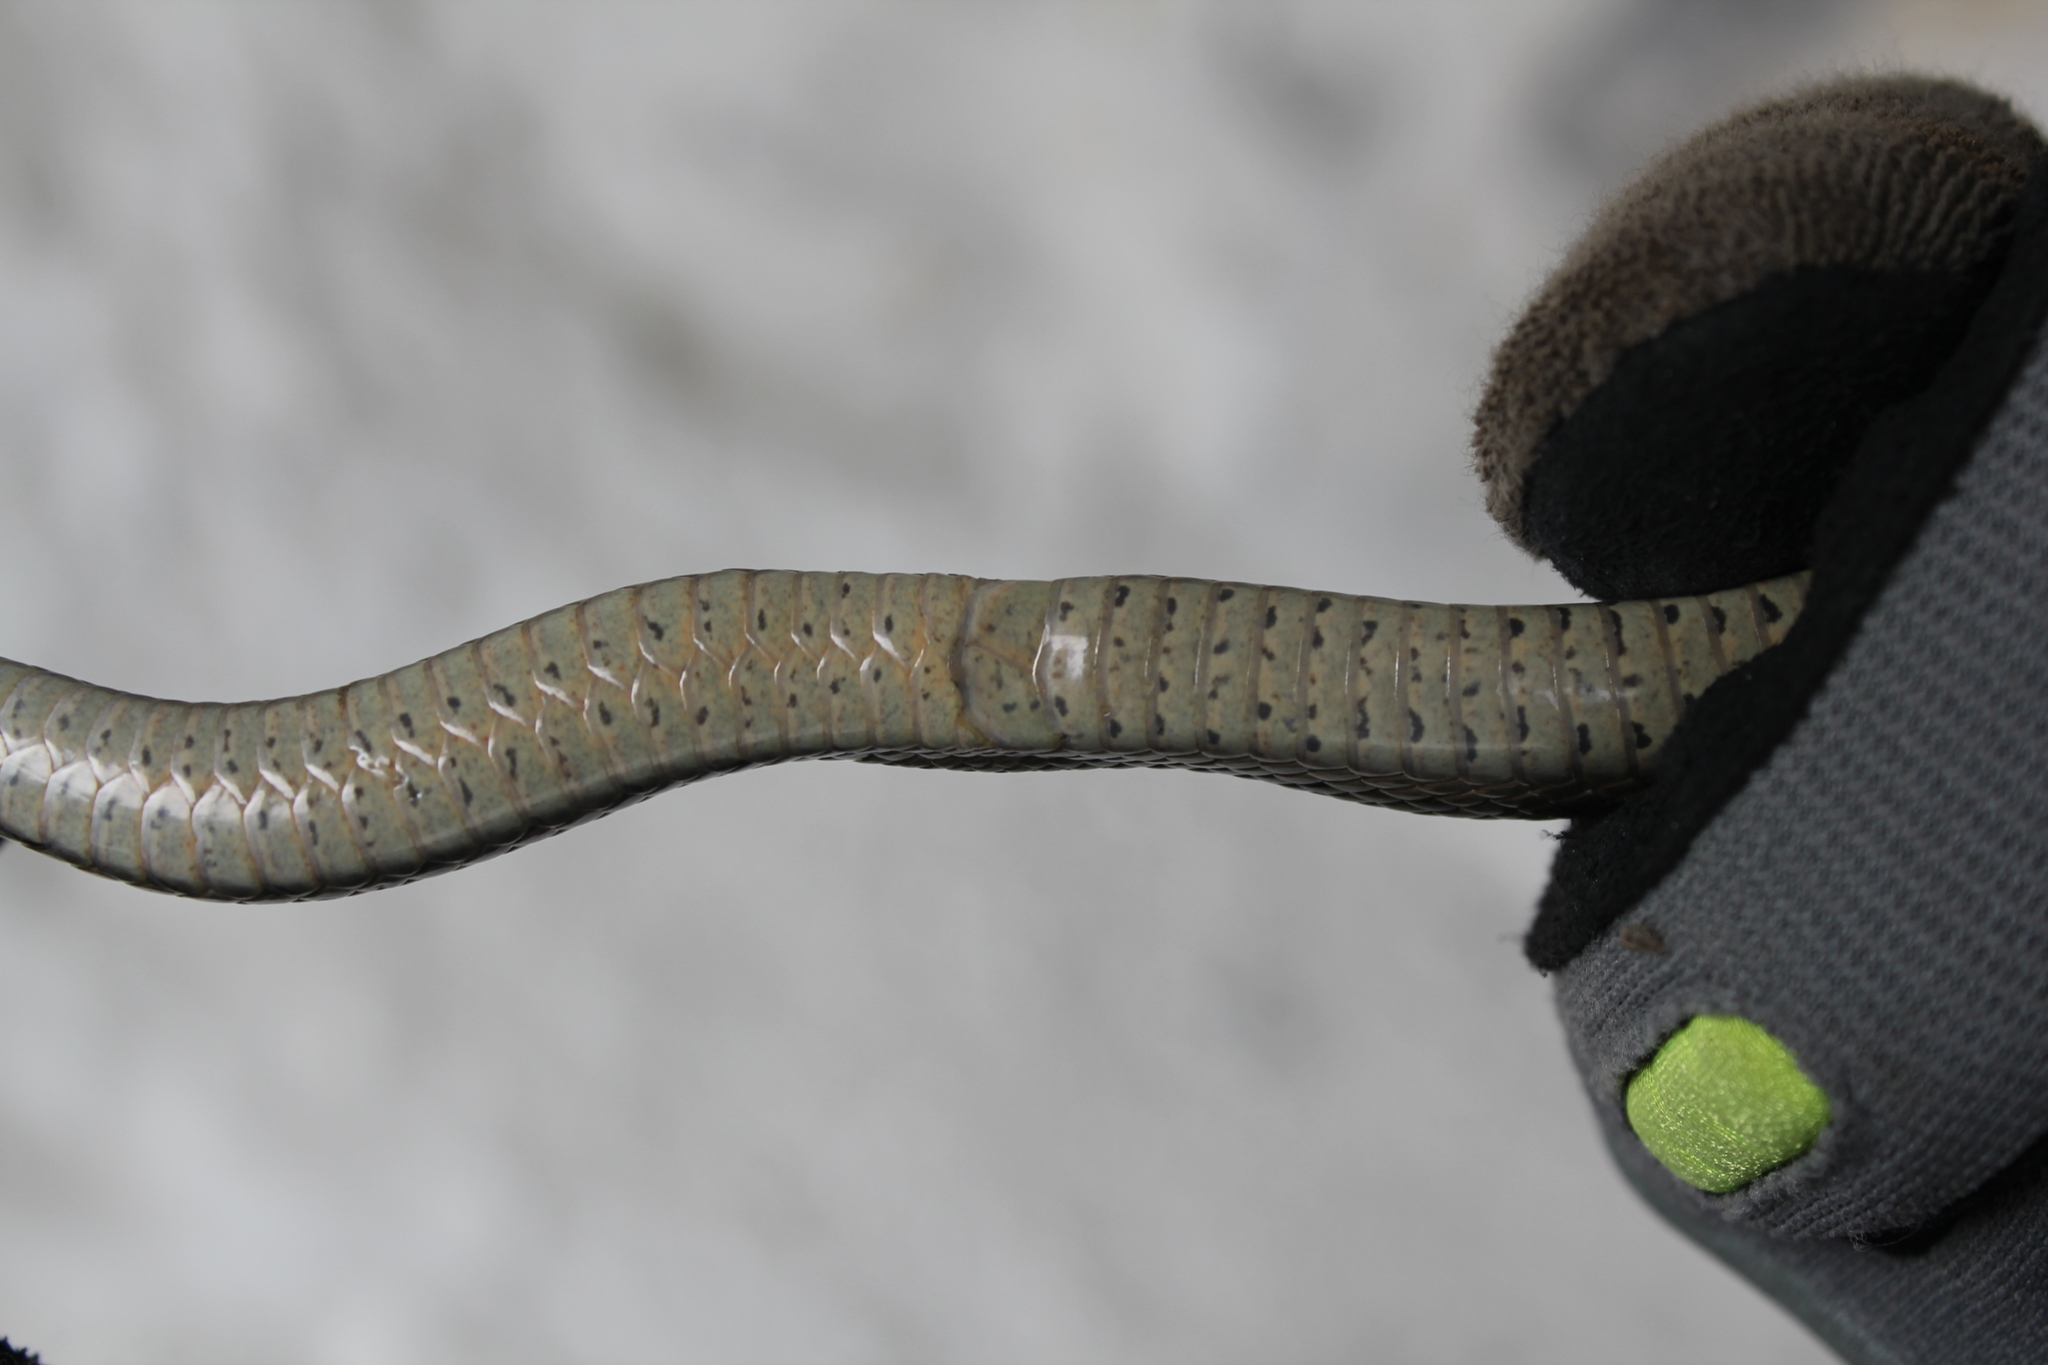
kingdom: Animalia
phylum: Chordata
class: Squamata
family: Colubridae
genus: Elaphe
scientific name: Elaphe dione
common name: Dione ratsnake
